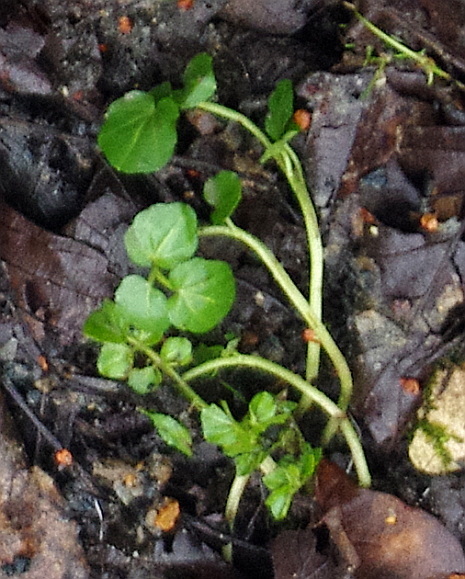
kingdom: Plantae
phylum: Tracheophyta
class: Magnoliopsida
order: Brassicales
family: Brassicaceae
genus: Cardamine
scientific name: Cardamine amara
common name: Large bitter-cress
